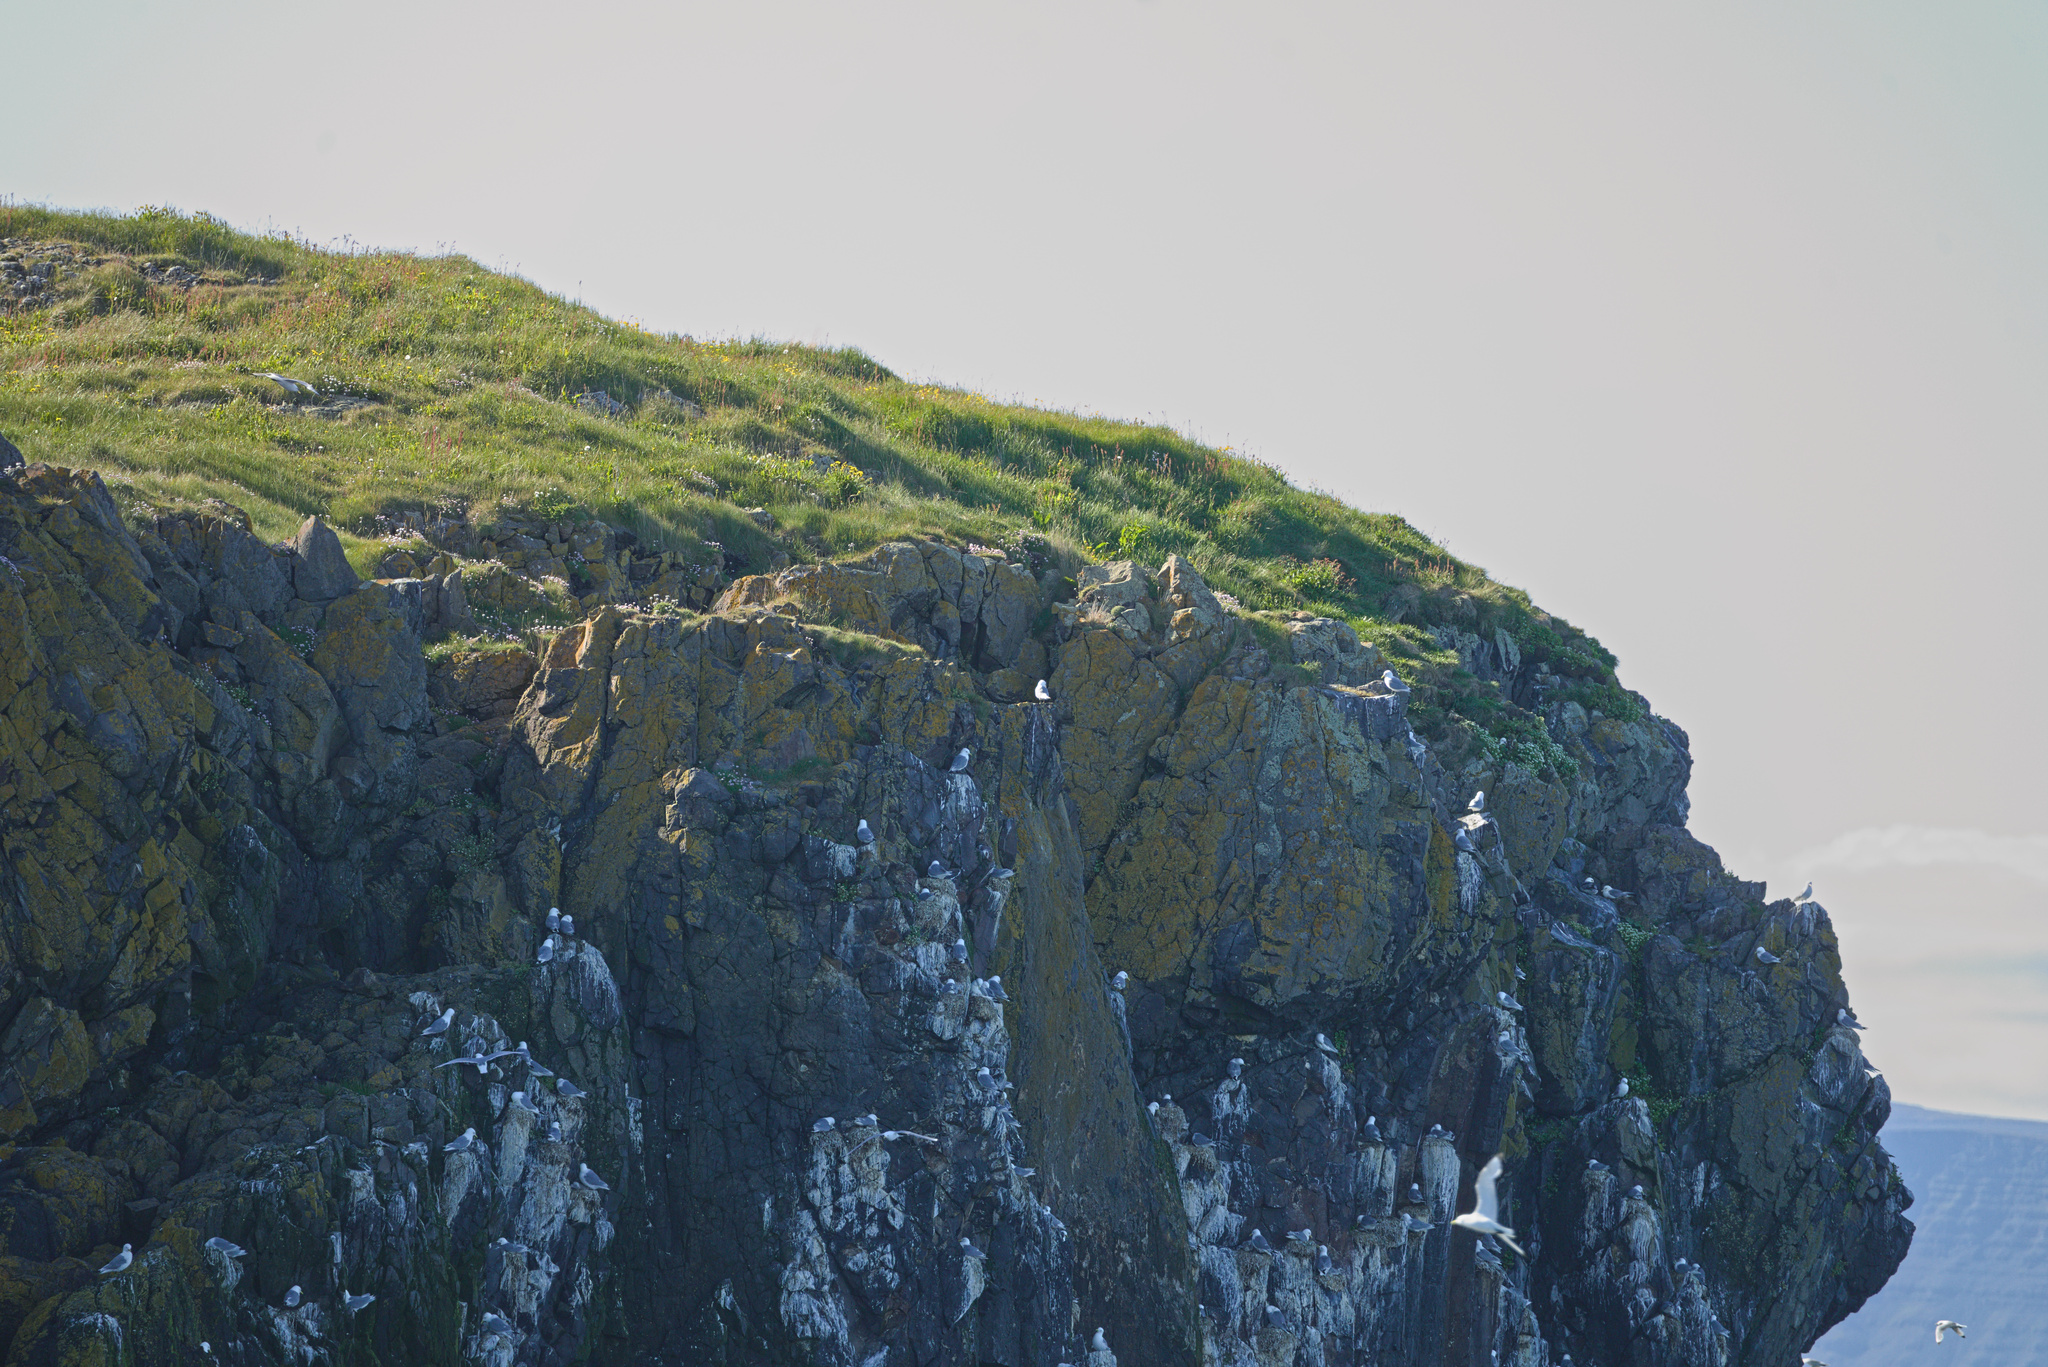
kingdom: Animalia
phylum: Chordata
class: Aves
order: Charadriiformes
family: Laridae
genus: Rissa
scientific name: Rissa tridactyla
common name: Black-legged kittiwake
